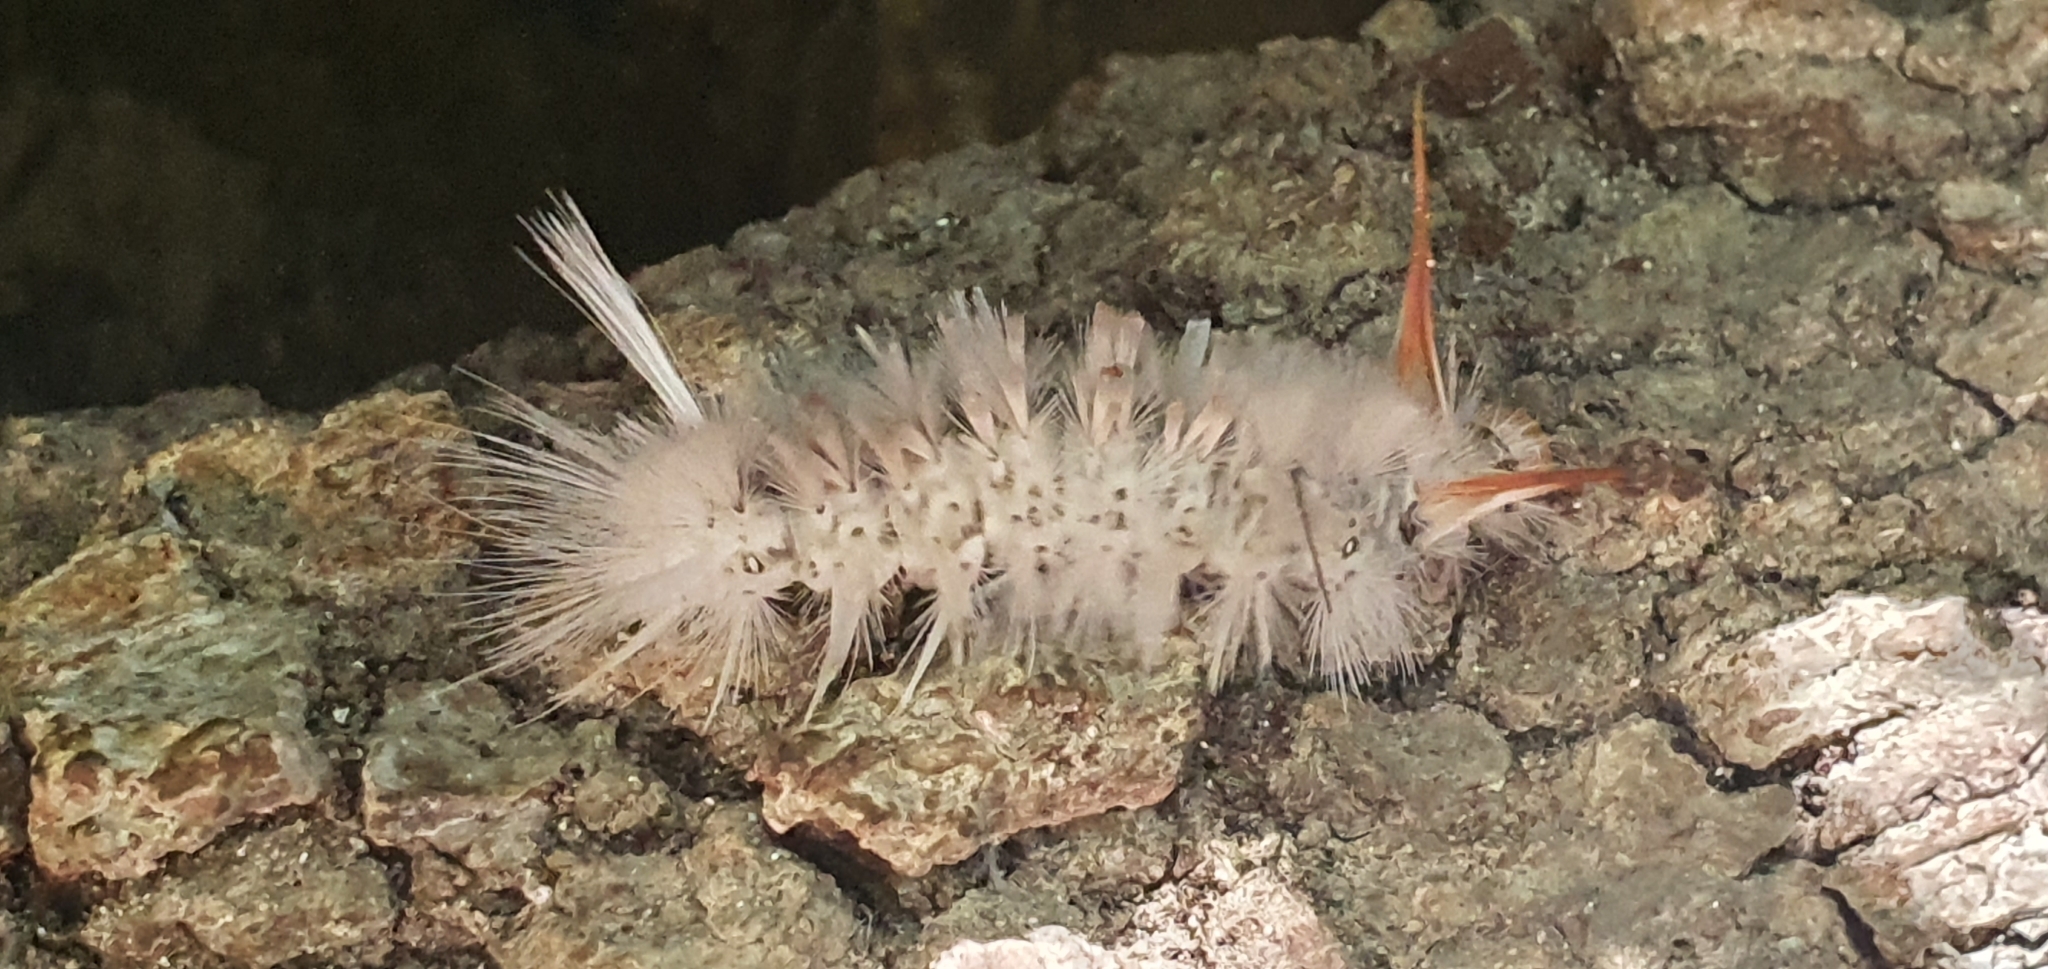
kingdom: Animalia
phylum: Arthropoda
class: Insecta
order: Lepidoptera
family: Erebidae
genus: Halysidota
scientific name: Halysidota harrisii
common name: Sycamore tussock moth
